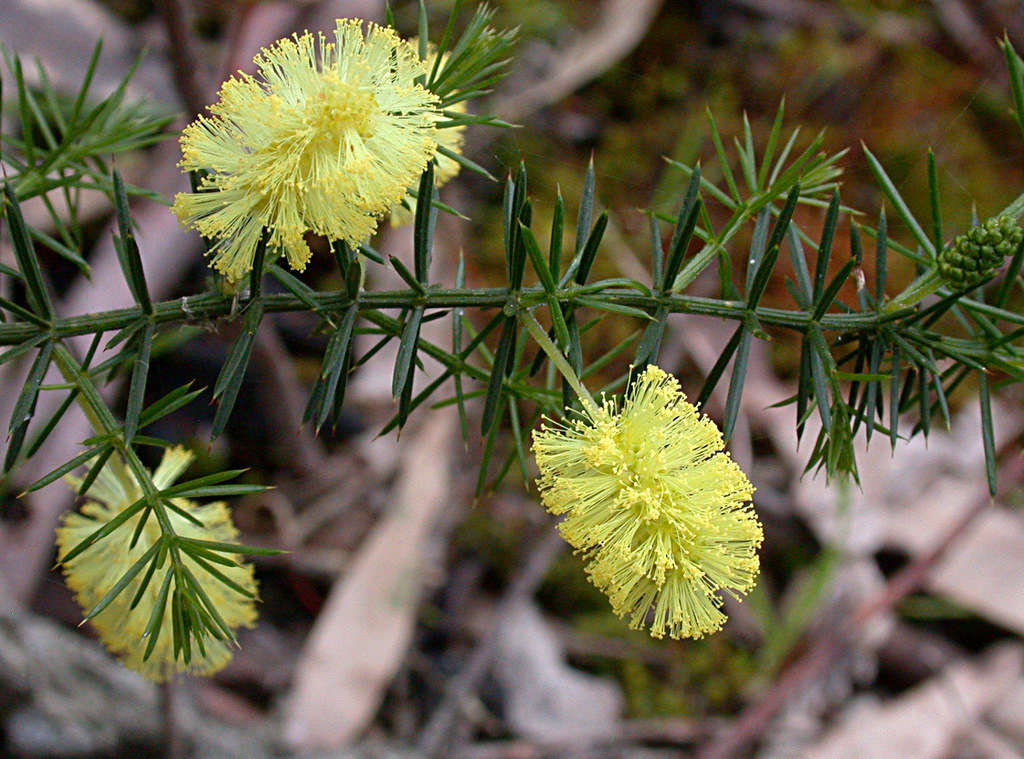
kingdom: Plantae
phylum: Tracheophyta
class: Magnoliopsida
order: Fabales
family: Fabaceae
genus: Acacia
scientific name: Acacia verticillata
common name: Prickly moses
